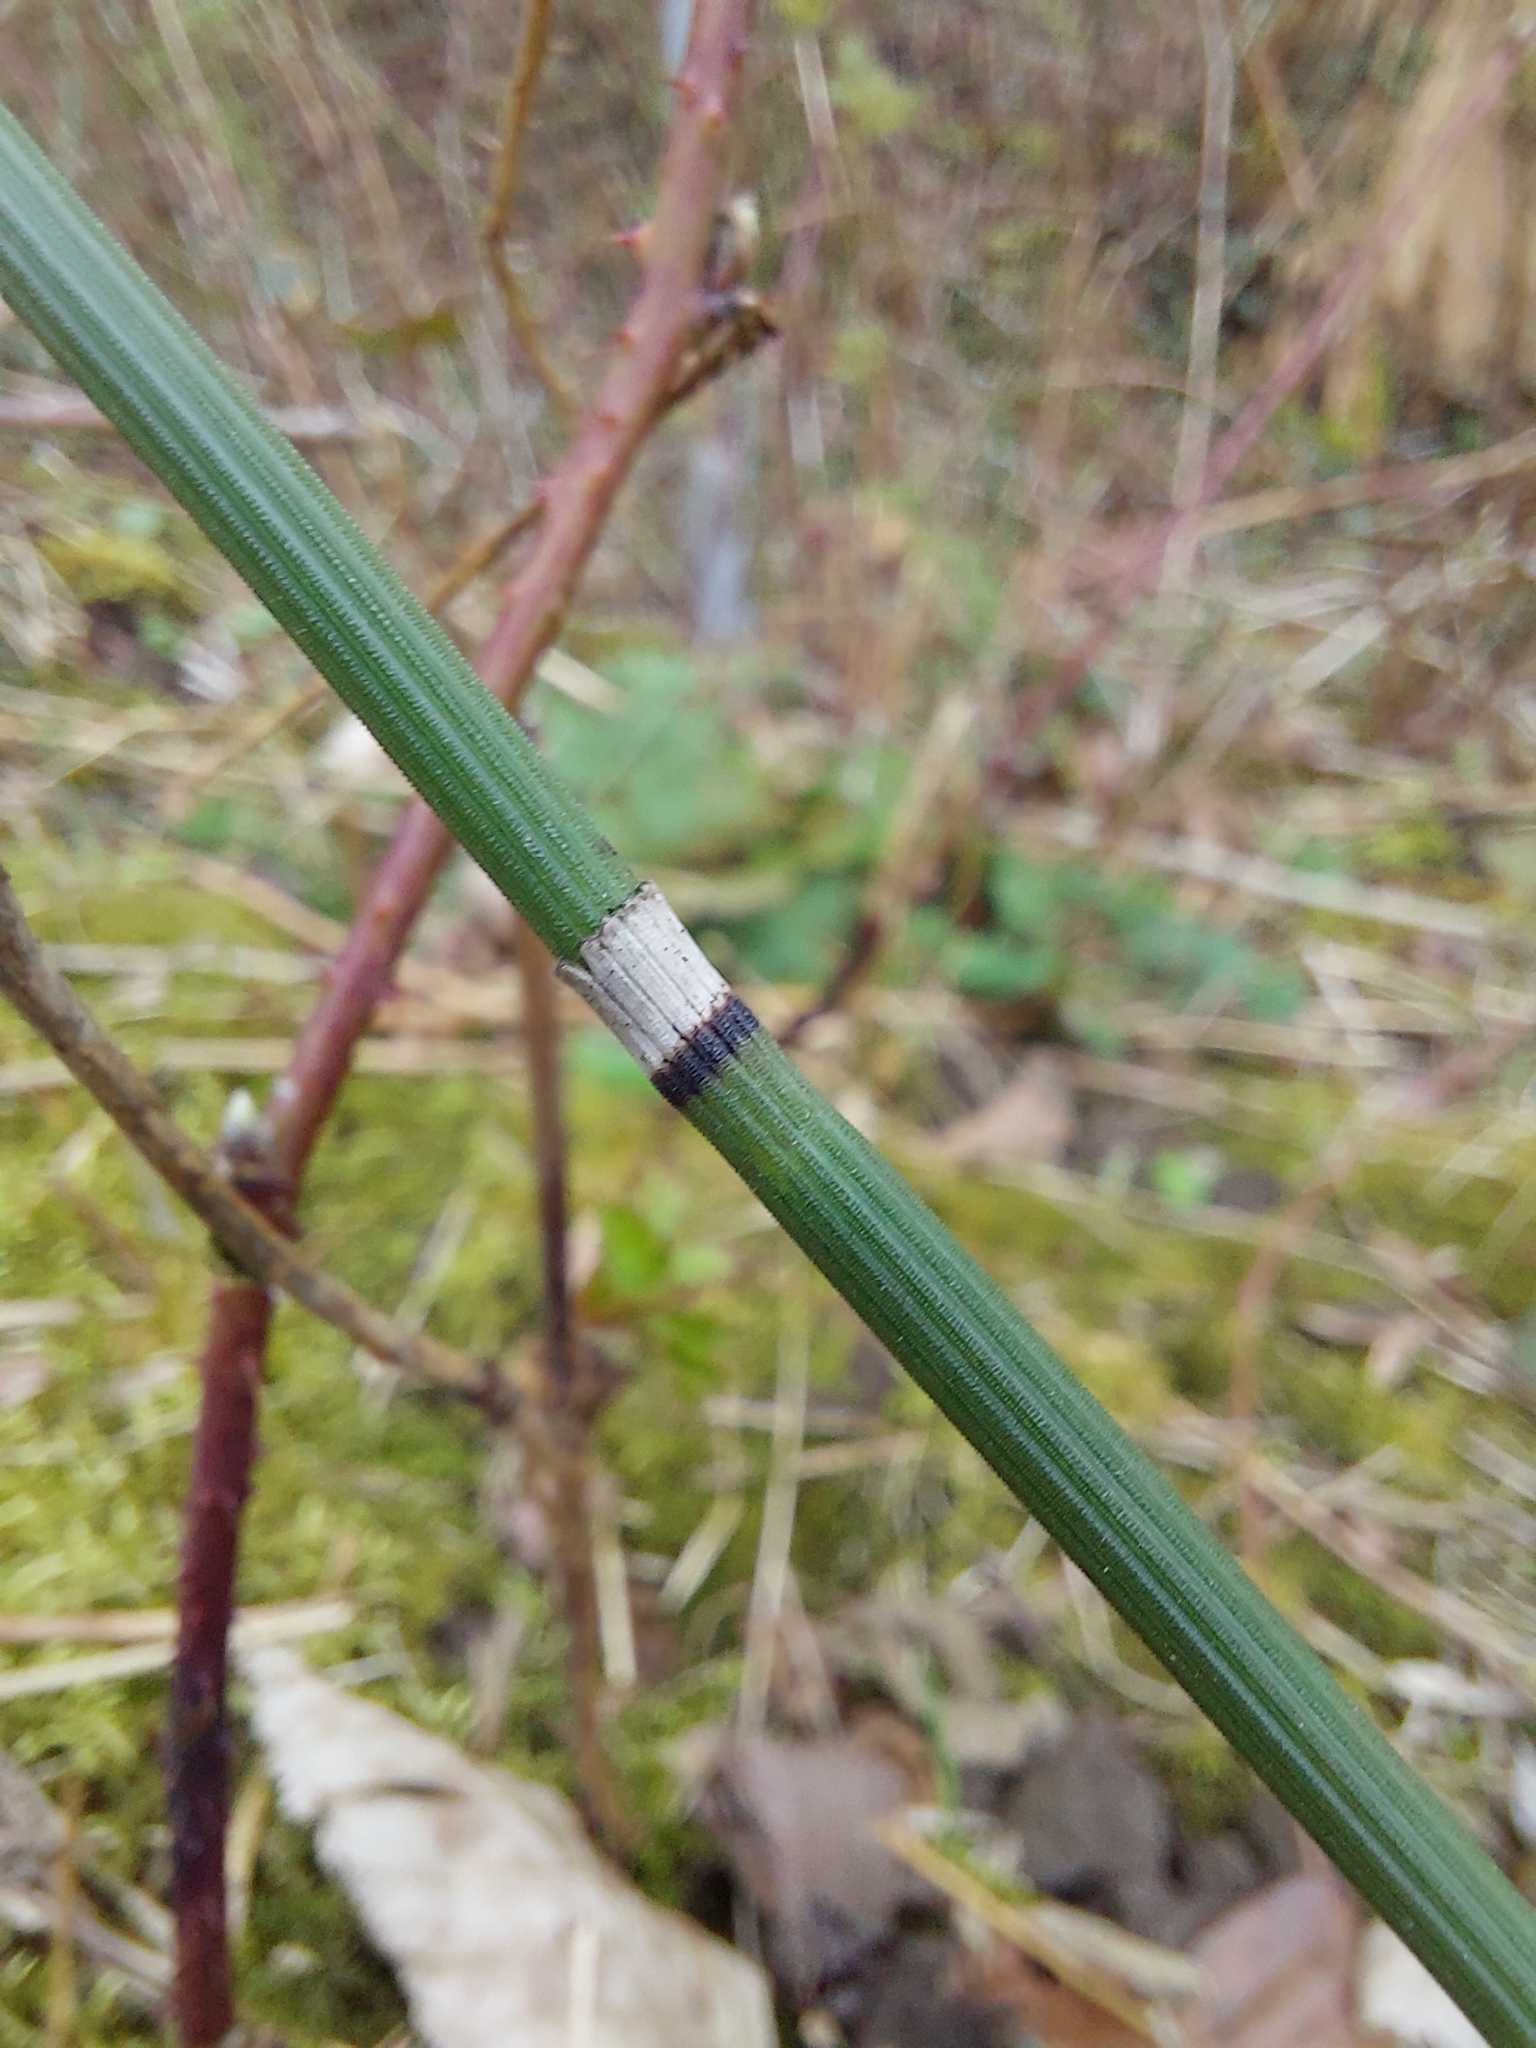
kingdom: Plantae
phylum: Tracheophyta
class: Polypodiopsida
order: Equisetales
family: Equisetaceae
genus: Equisetum
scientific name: Equisetum hyemale
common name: Rough horsetail
